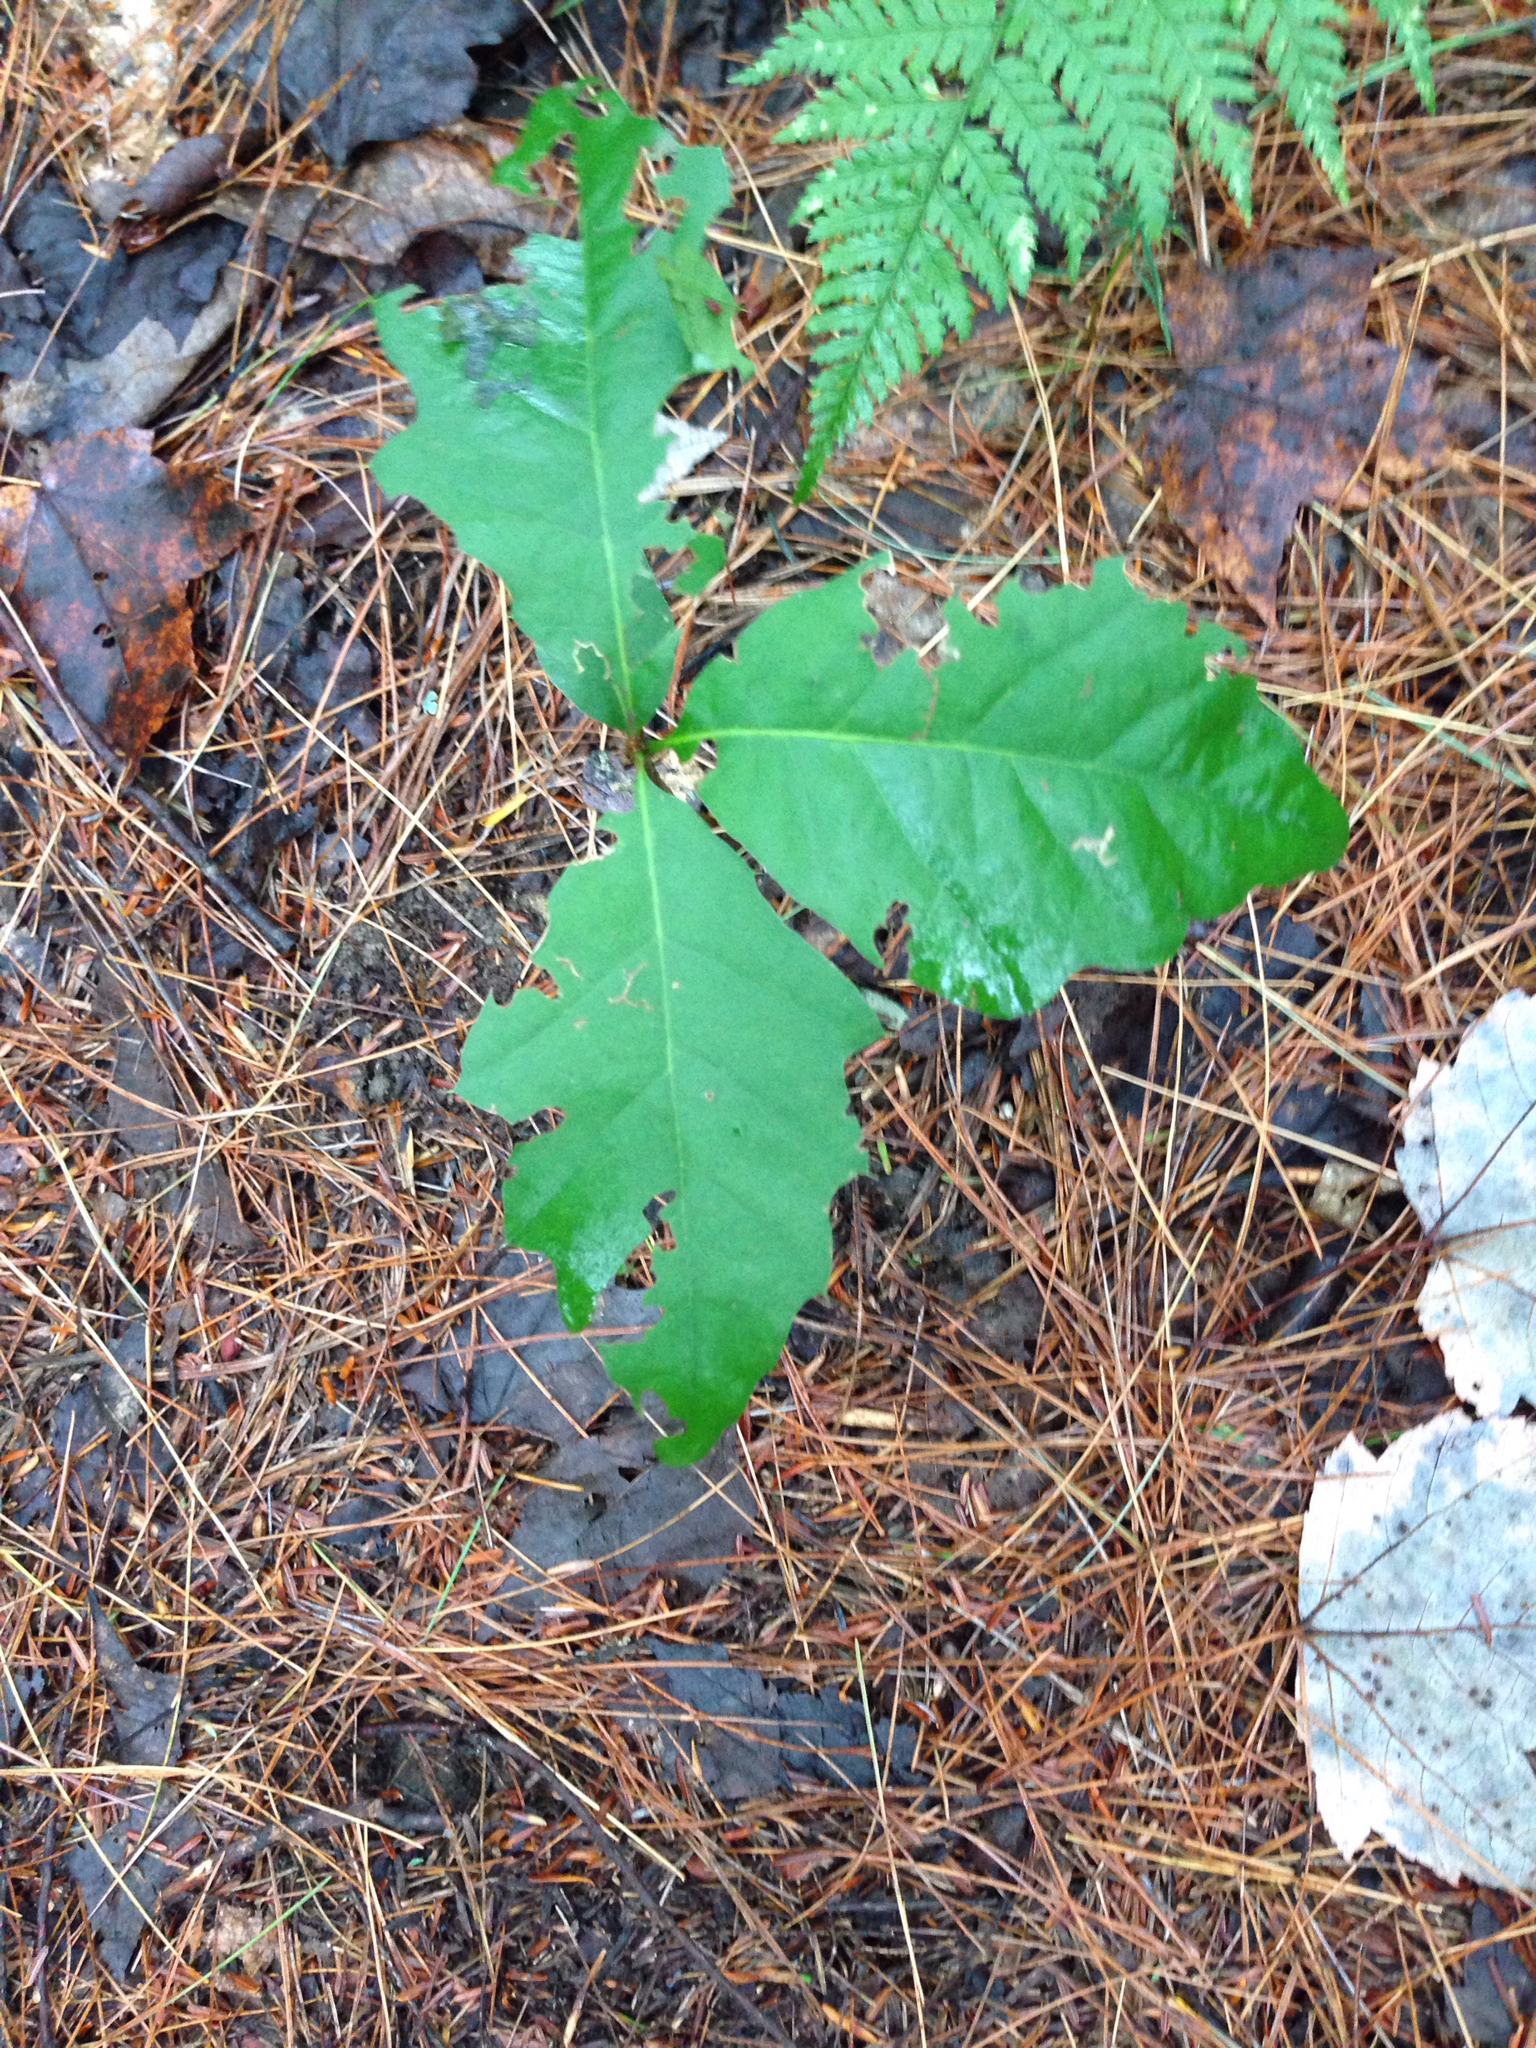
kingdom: Plantae
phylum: Tracheophyta
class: Magnoliopsida
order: Fagales
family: Fagaceae
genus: Quercus
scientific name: Quercus rubra
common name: Red oak
